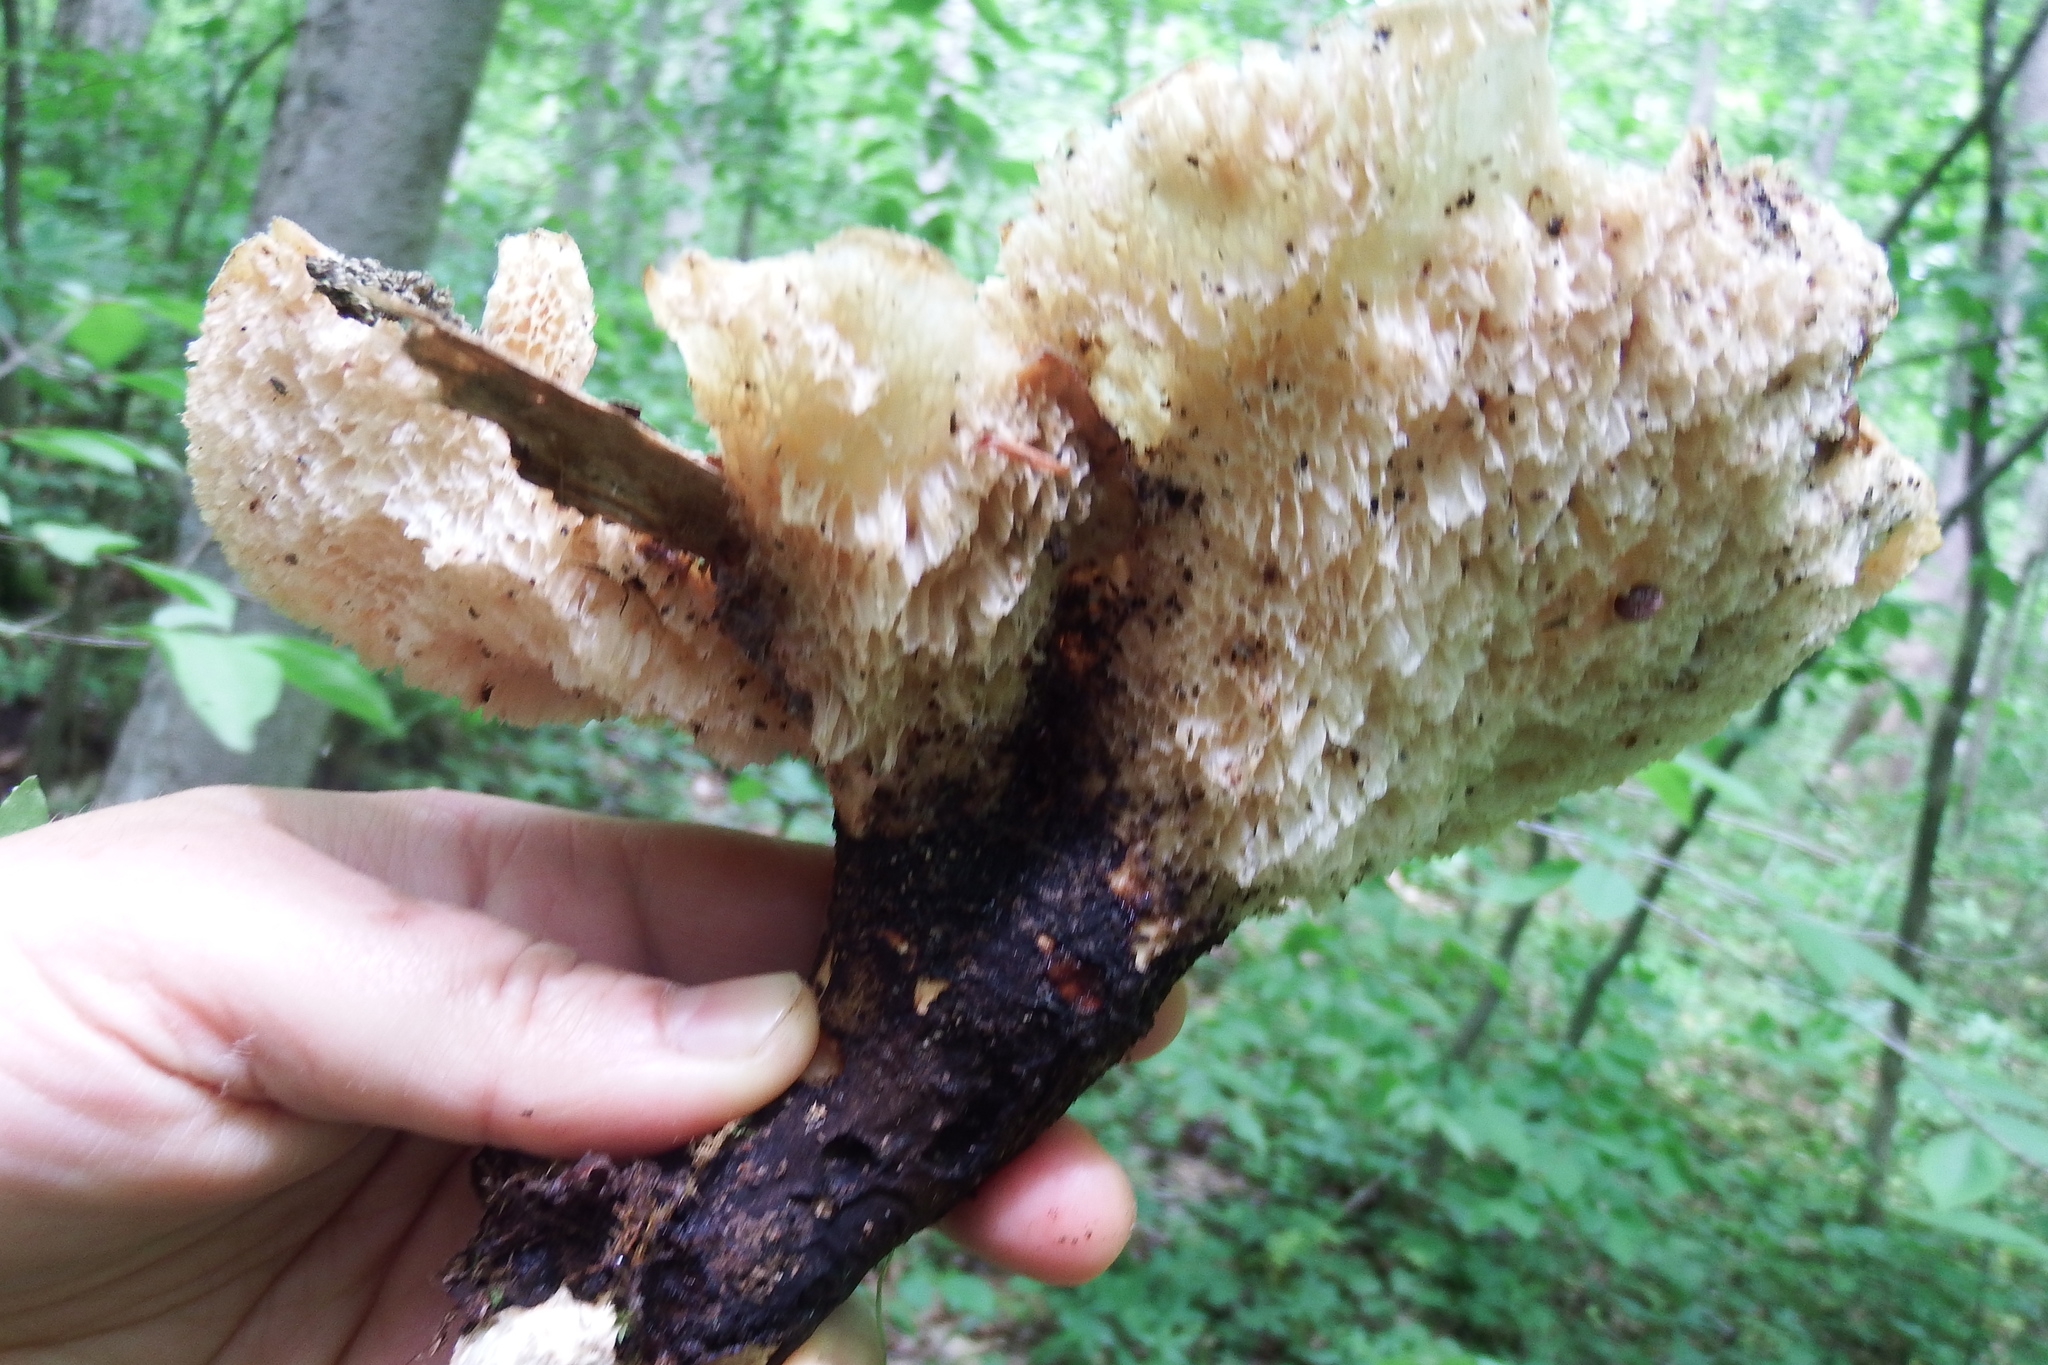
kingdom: Fungi
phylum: Basidiomycota
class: Agaricomycetes
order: Polyporales
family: Polyporaceae
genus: Cerioporus
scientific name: Cerioporus squamosus
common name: Dryad's saddle
